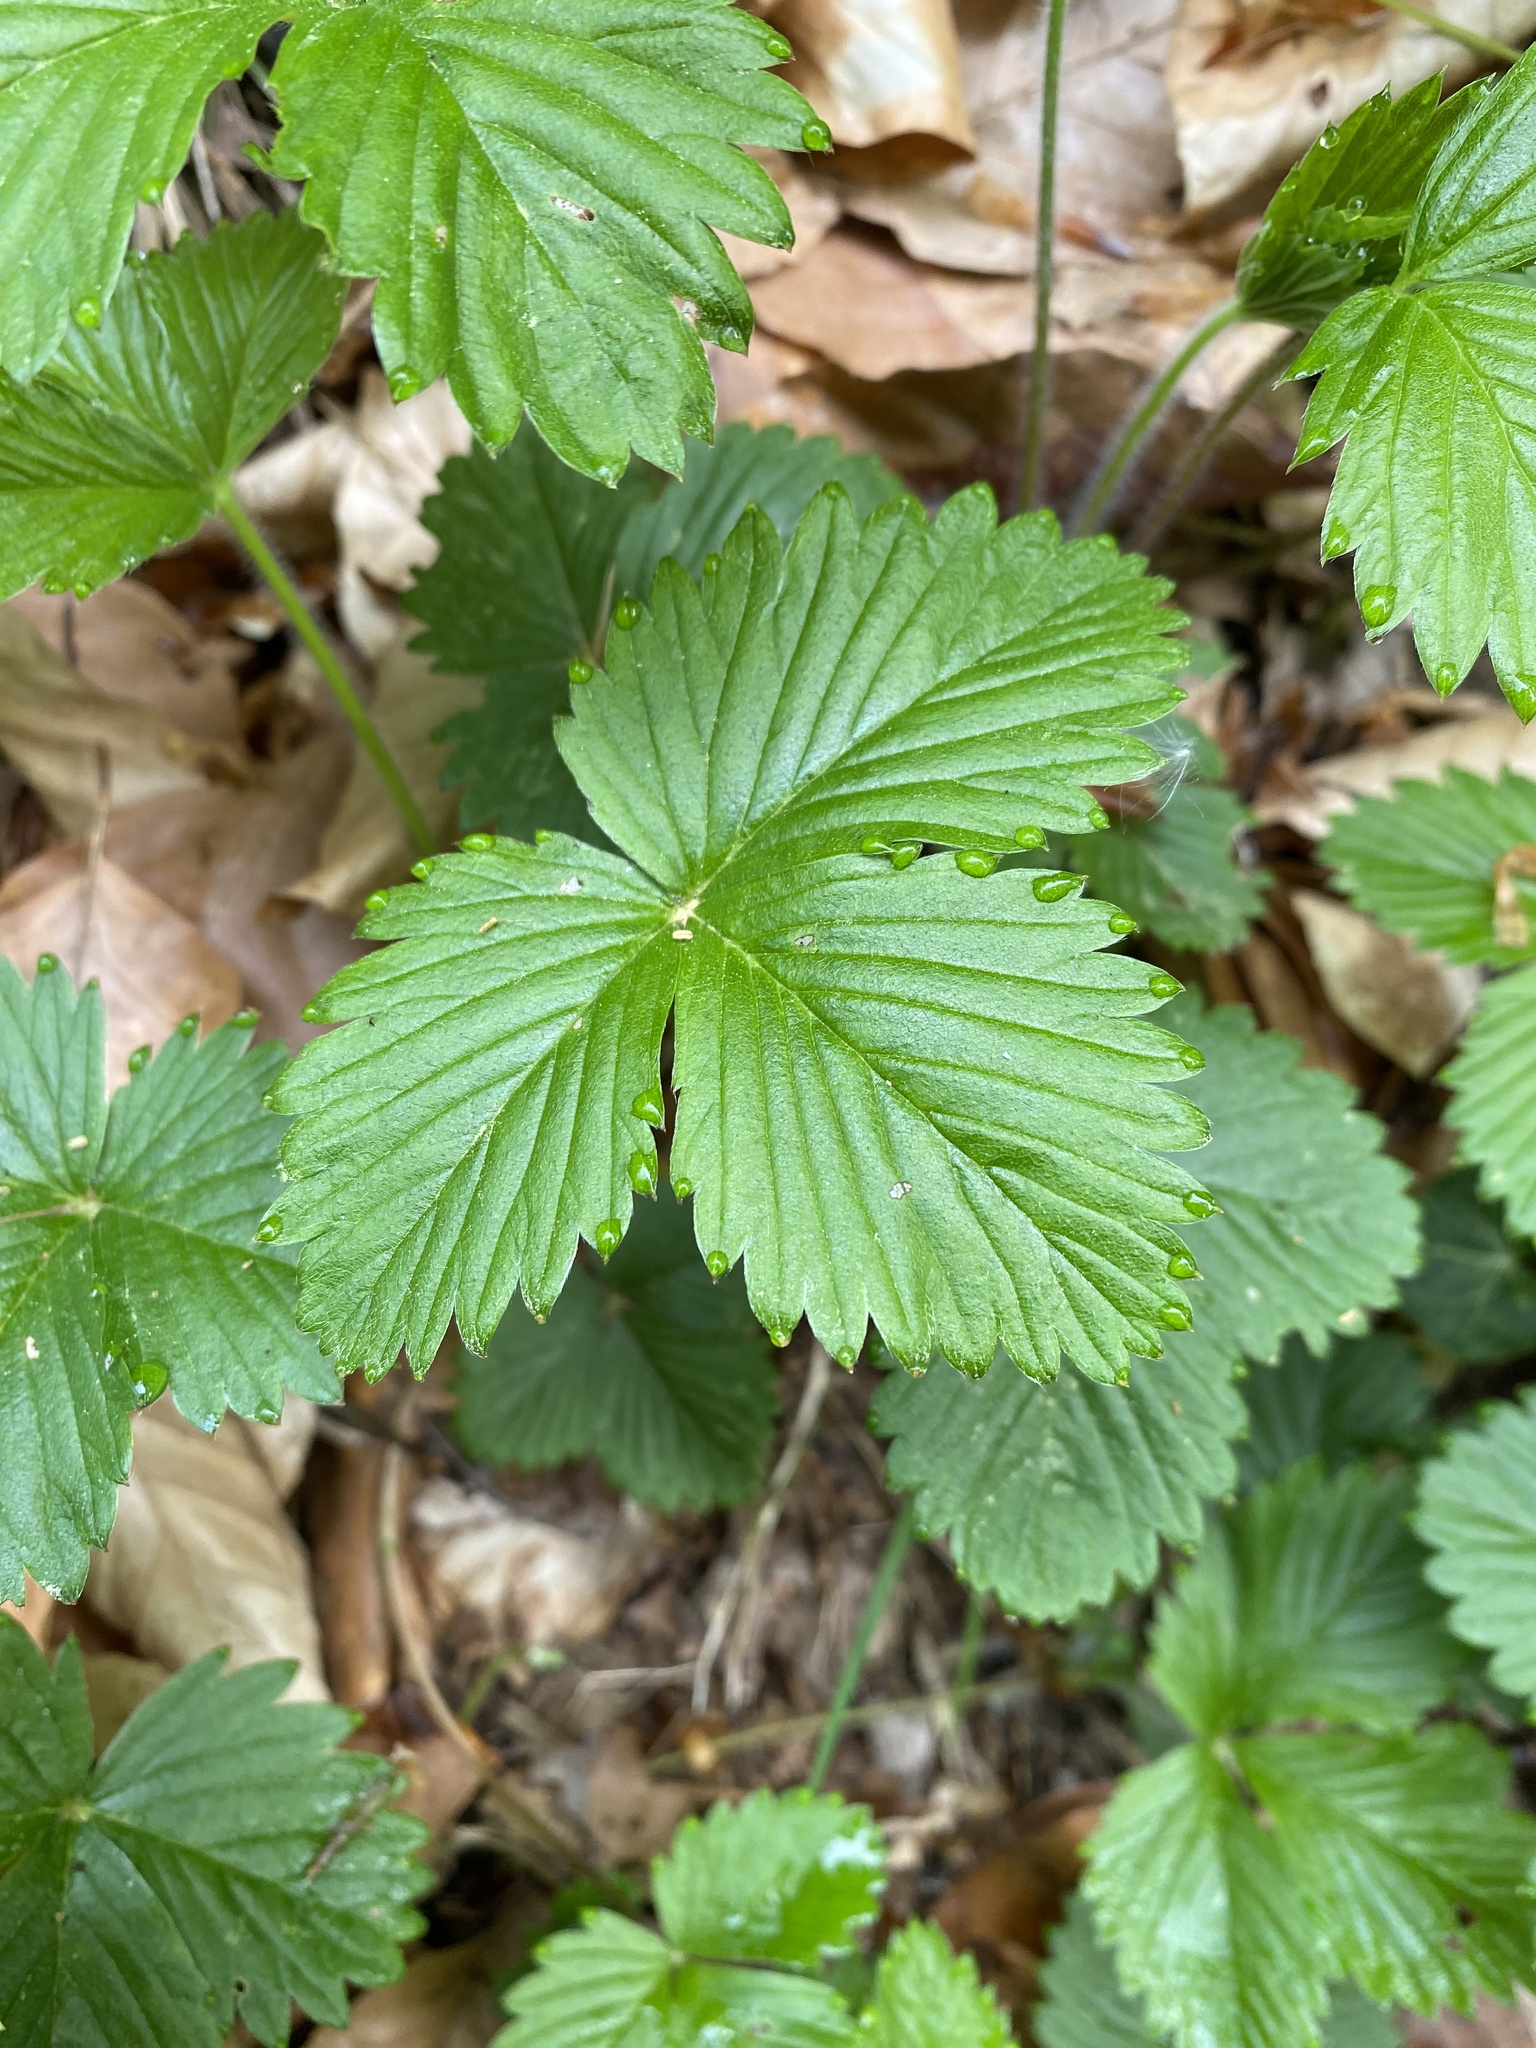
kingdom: Plantae
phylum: Tracheophyta
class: Magnoliopsida
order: Rosales
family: Rosaceae
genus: Fragaria
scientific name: Fragaria vesca
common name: Wild strawberry
